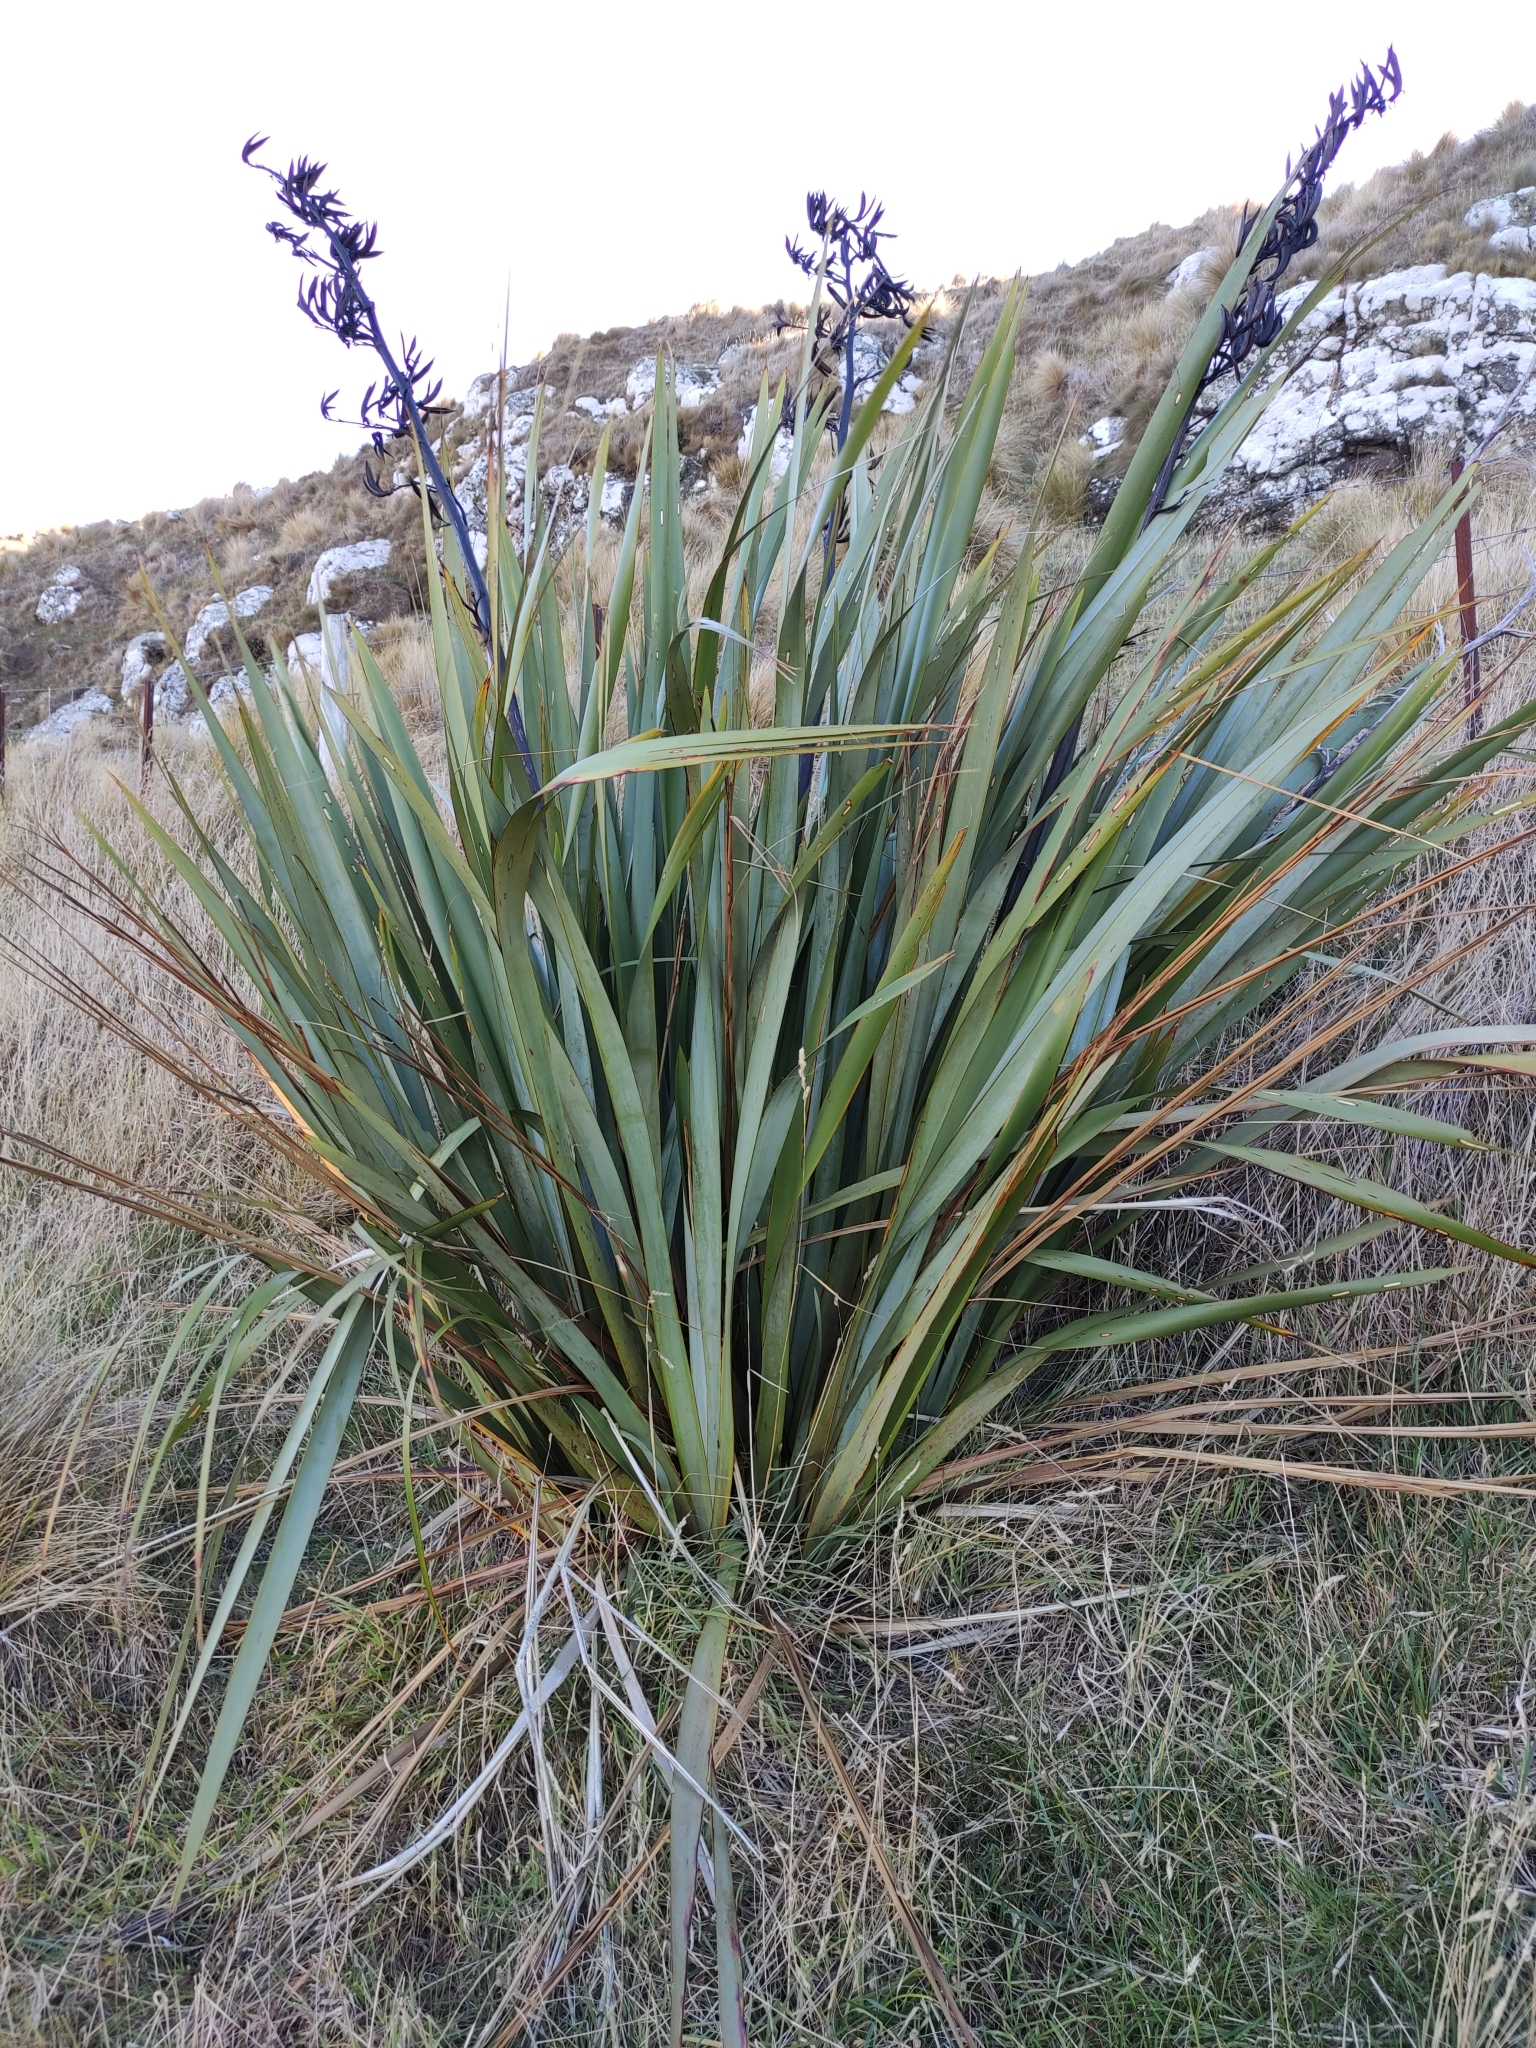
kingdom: Plantae
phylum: Tracheophyta
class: Liliopsida
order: Asparagales
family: Asphodelaceae
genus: Phormium
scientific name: Phormium tenax
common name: New zealand flax
